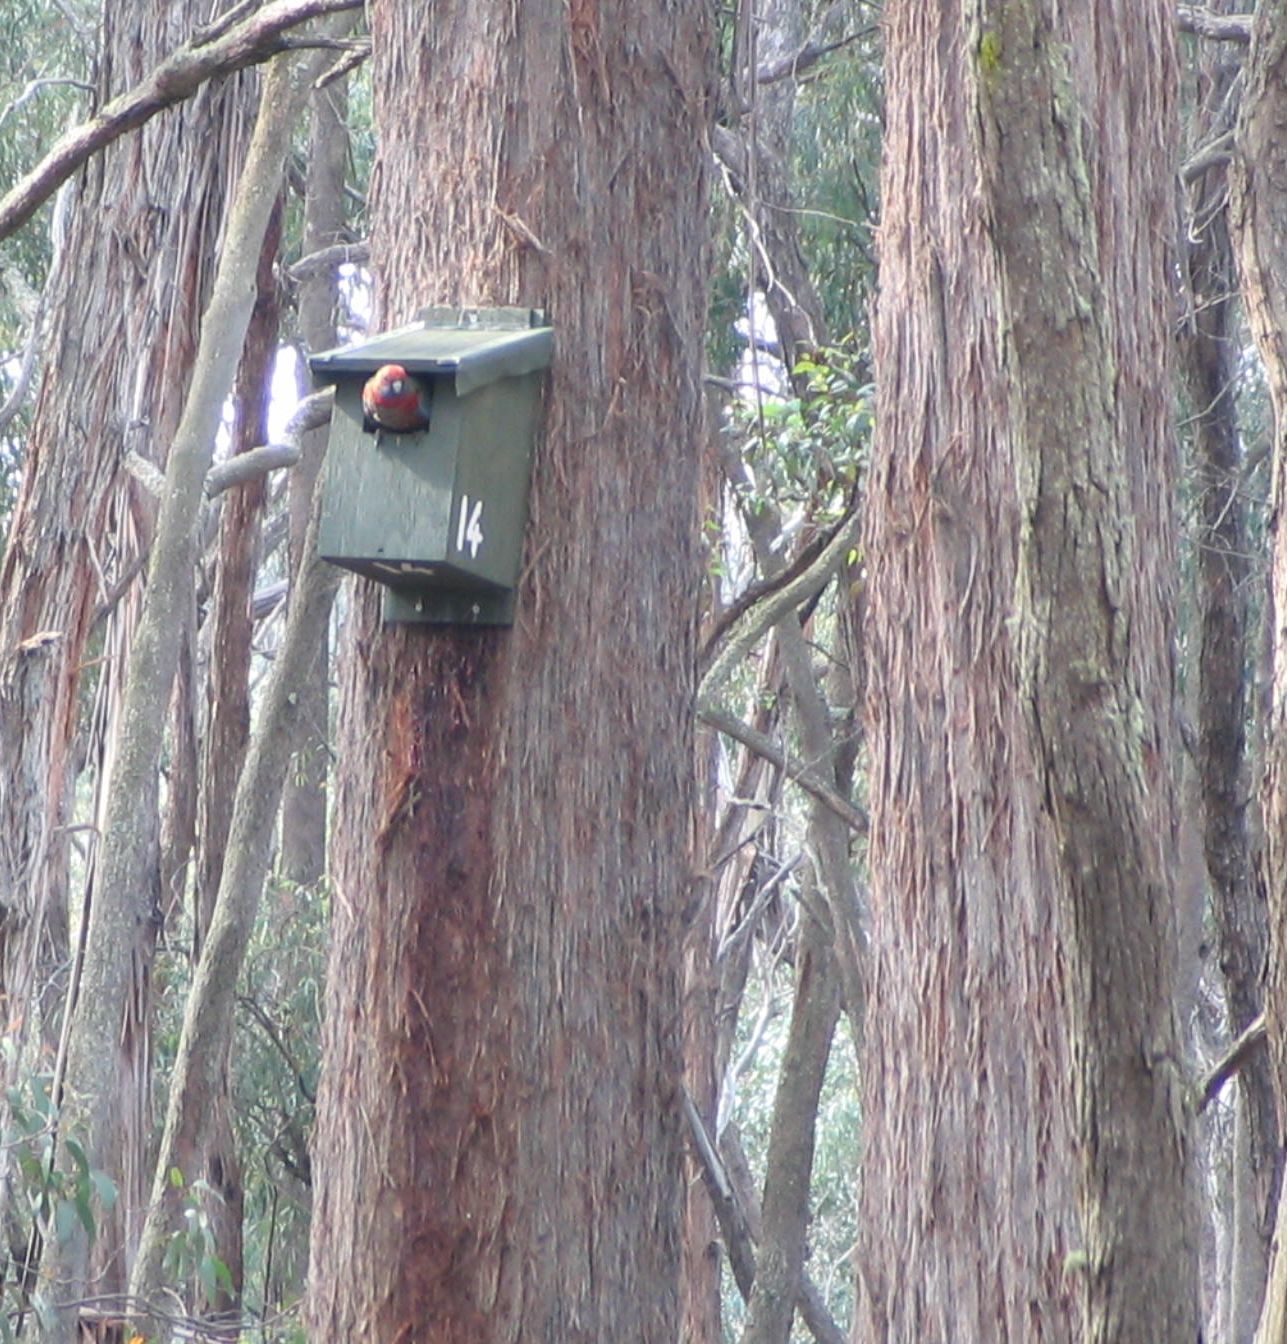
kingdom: Animalia
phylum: Chordata
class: Aves
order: Psittaciformes
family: Psittacidae
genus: Platycercus
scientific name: Platycercus elegans
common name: Crimson rosella
